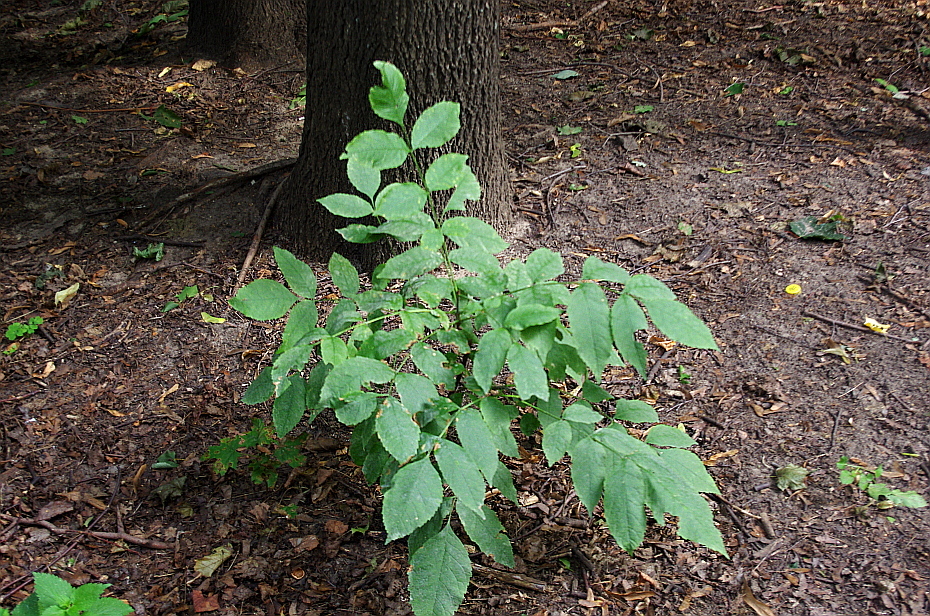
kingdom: Plantae
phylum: Tracheophyta
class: Magnoliopsida
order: Lamiales
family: Oleaceae
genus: Fraxinus
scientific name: Fraxinus pennsylvanica
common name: Green ash
